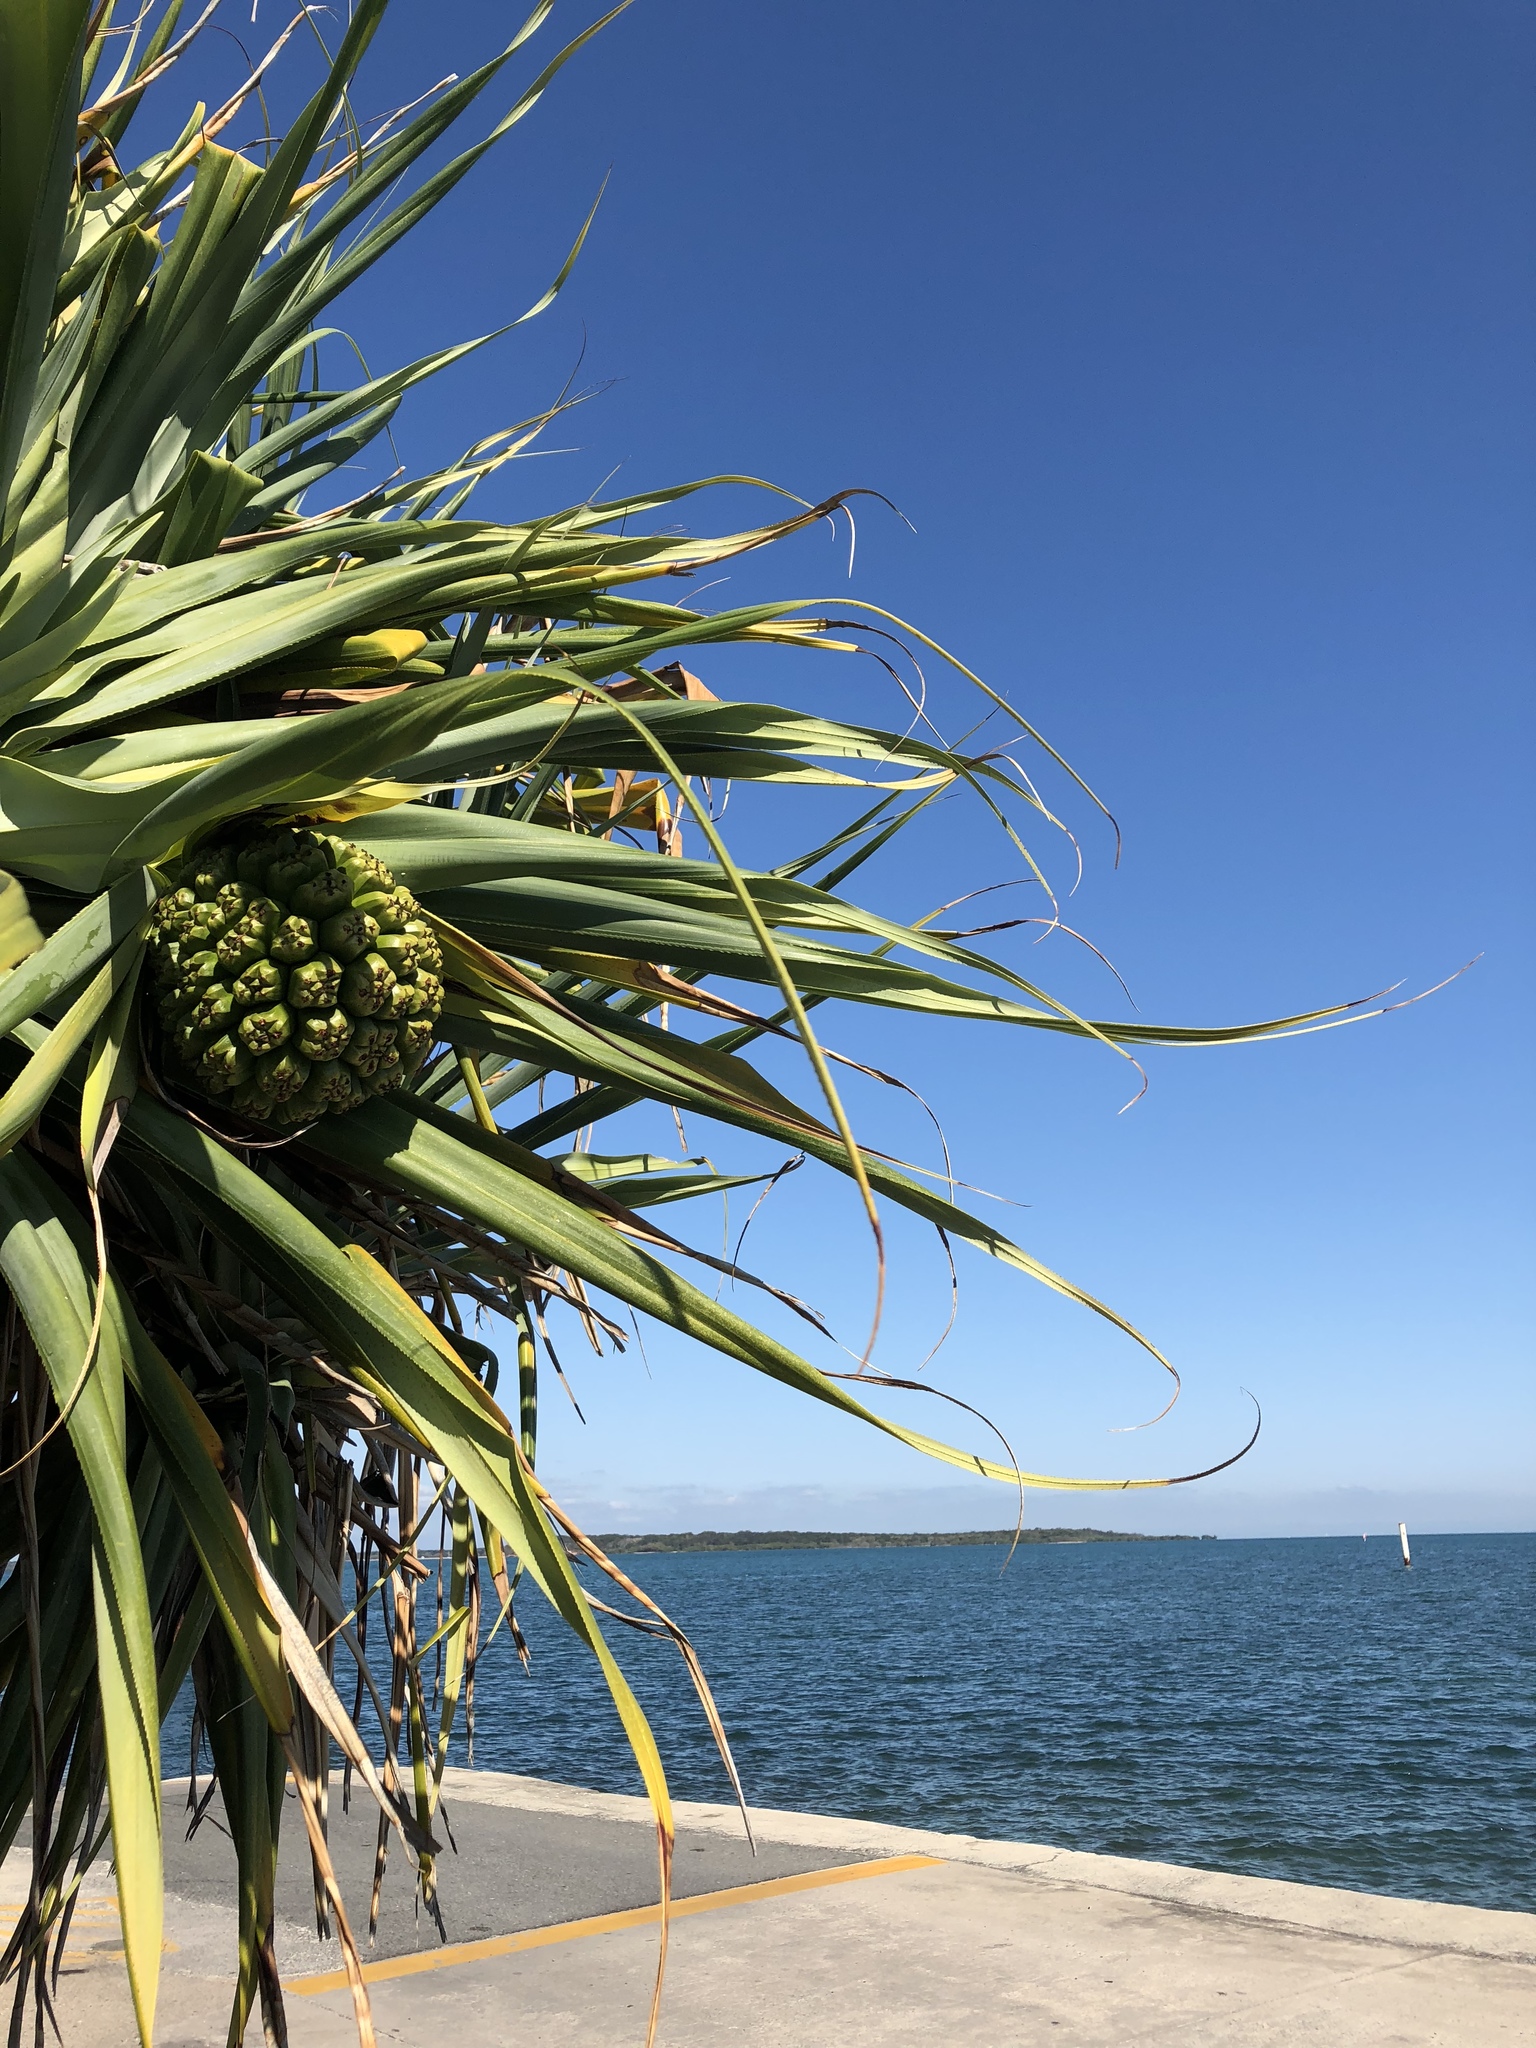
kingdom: Plantae
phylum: Tracheophyta
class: Liliopsida
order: Pandanales
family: Pandanaceae
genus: Pandanus
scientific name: Pandanus tectorius
